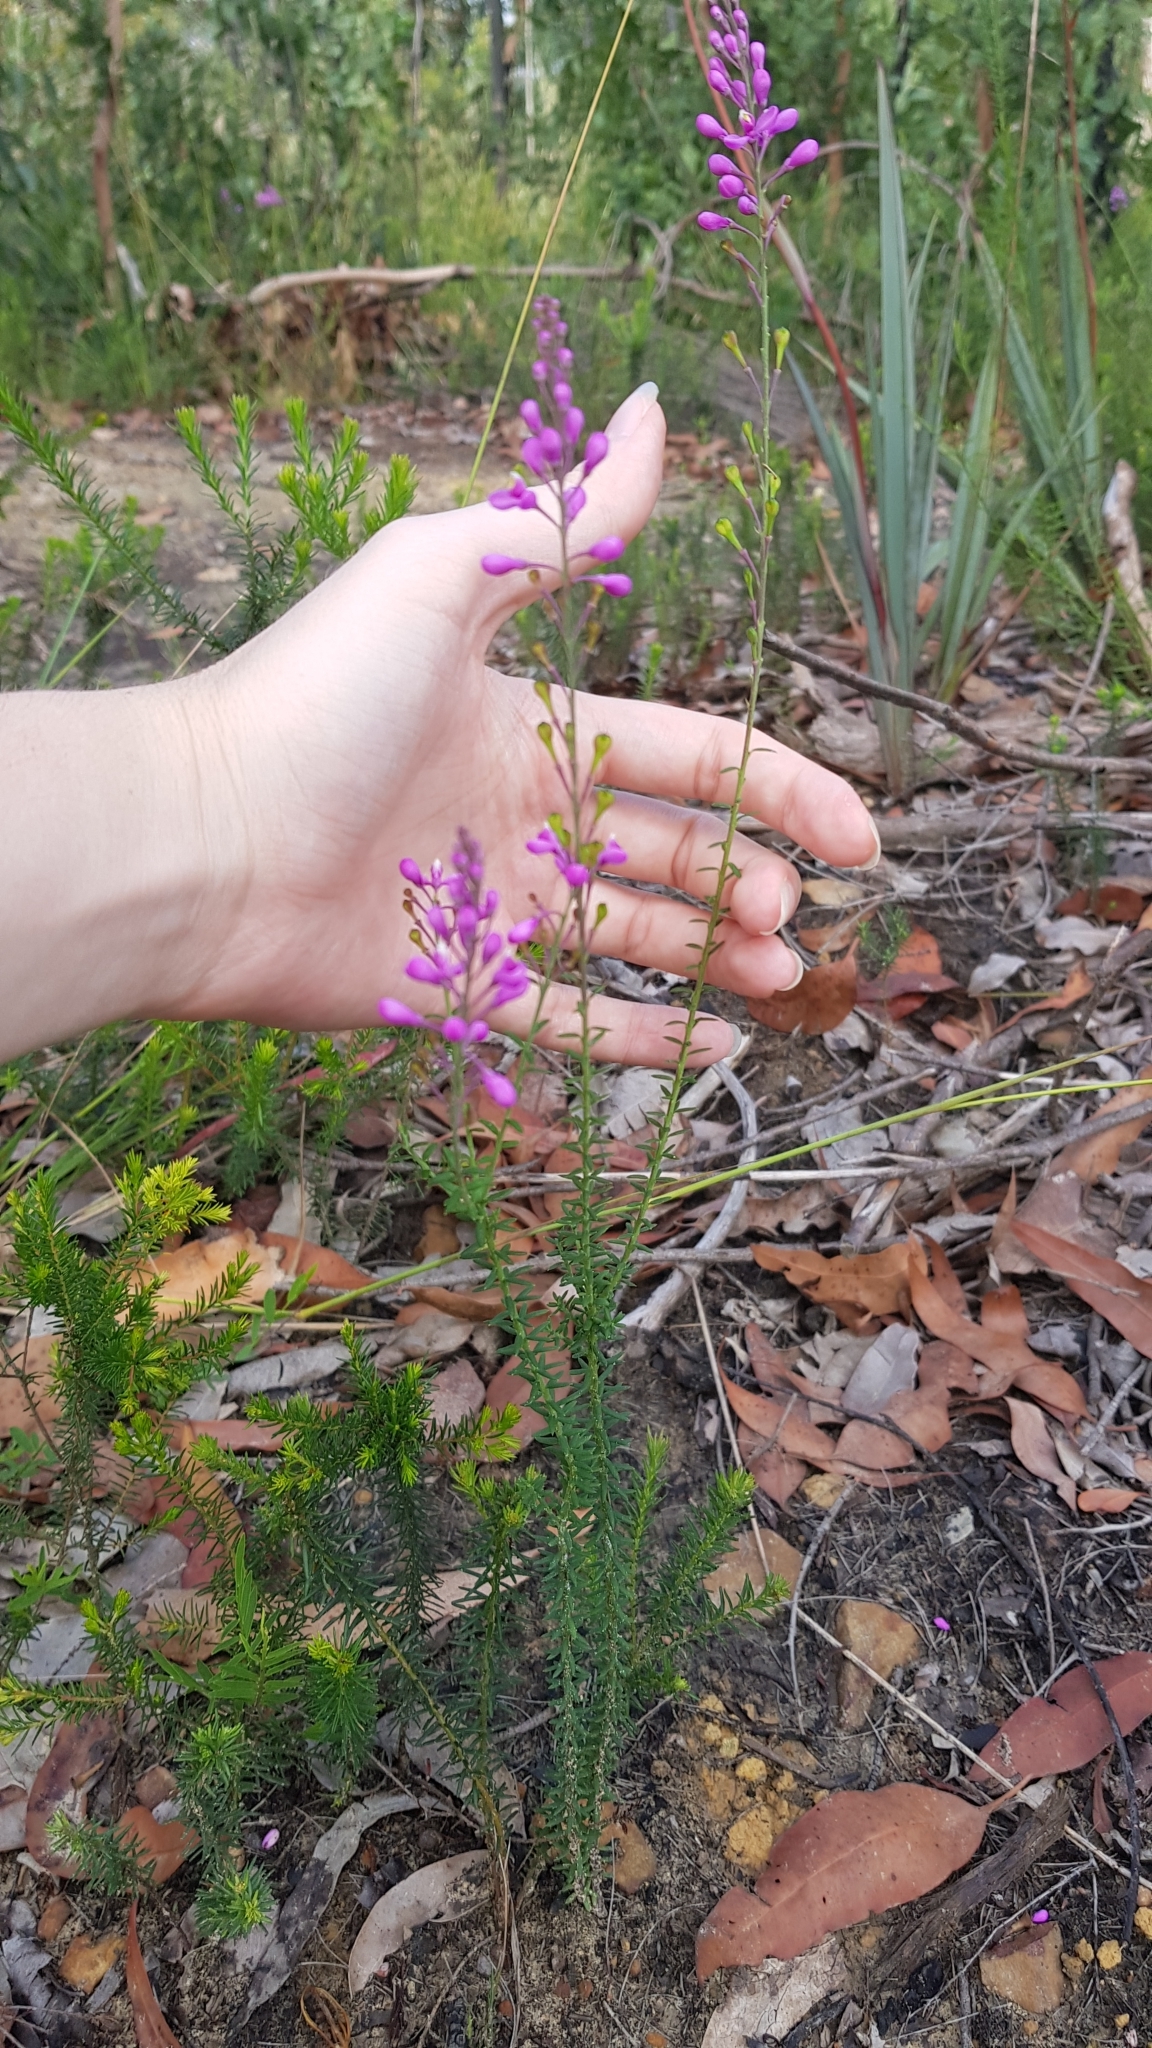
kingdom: Plantae
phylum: Tracheophyta
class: Magnoliopsida
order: Fabales
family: Polygalaceae
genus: Comesperma
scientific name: Comesperma ericinum
